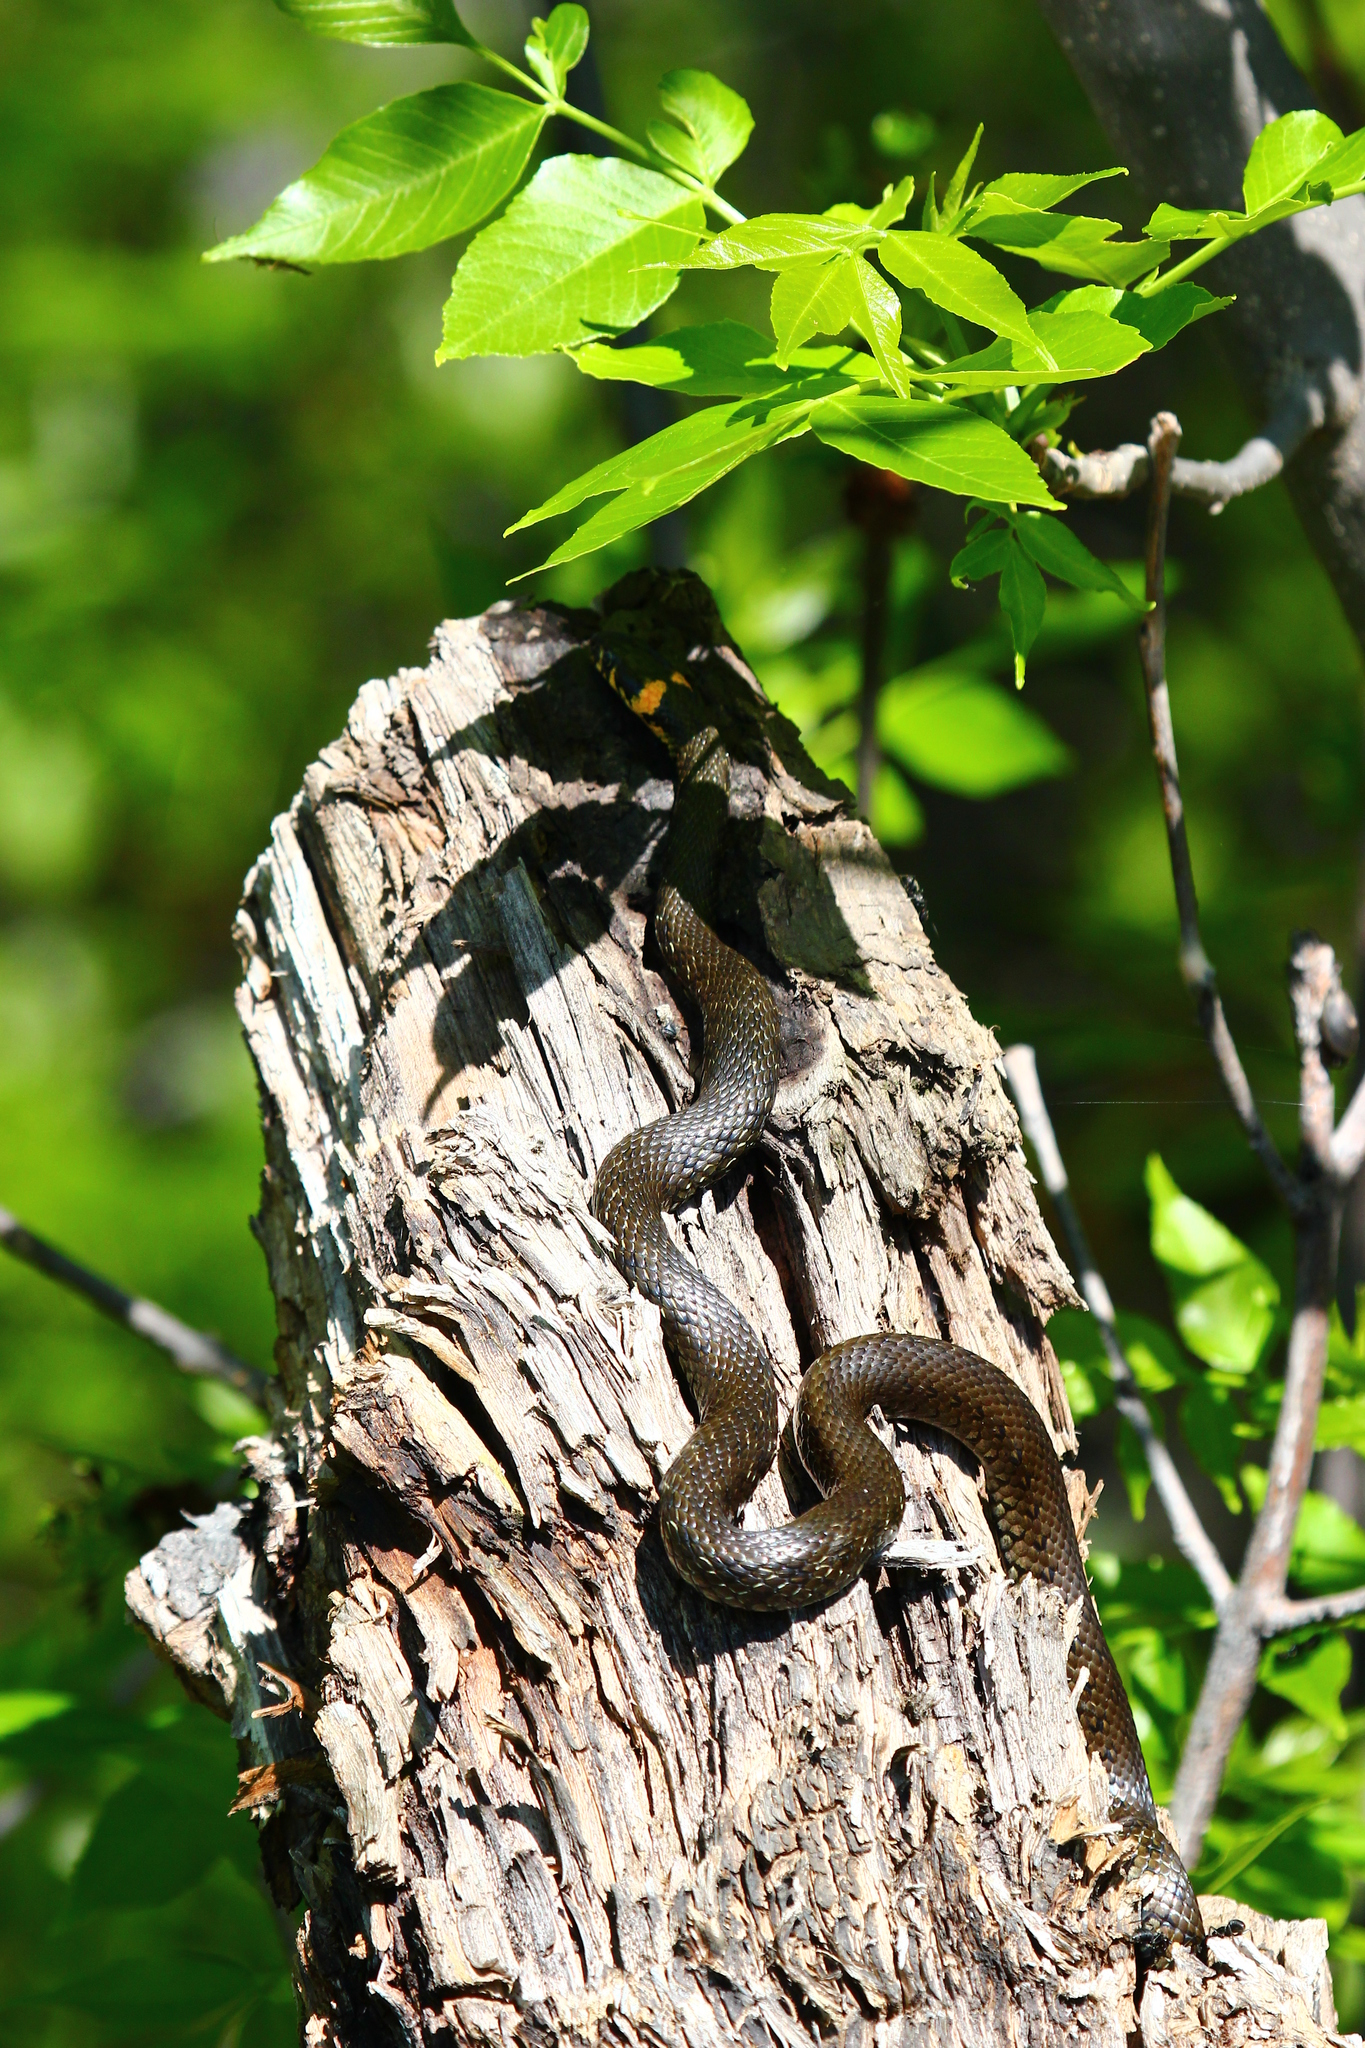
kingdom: Animalia
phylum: Chordata
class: Squamata
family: Colubridae
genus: Natrix
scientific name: Natrix natrix
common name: Grass snake
